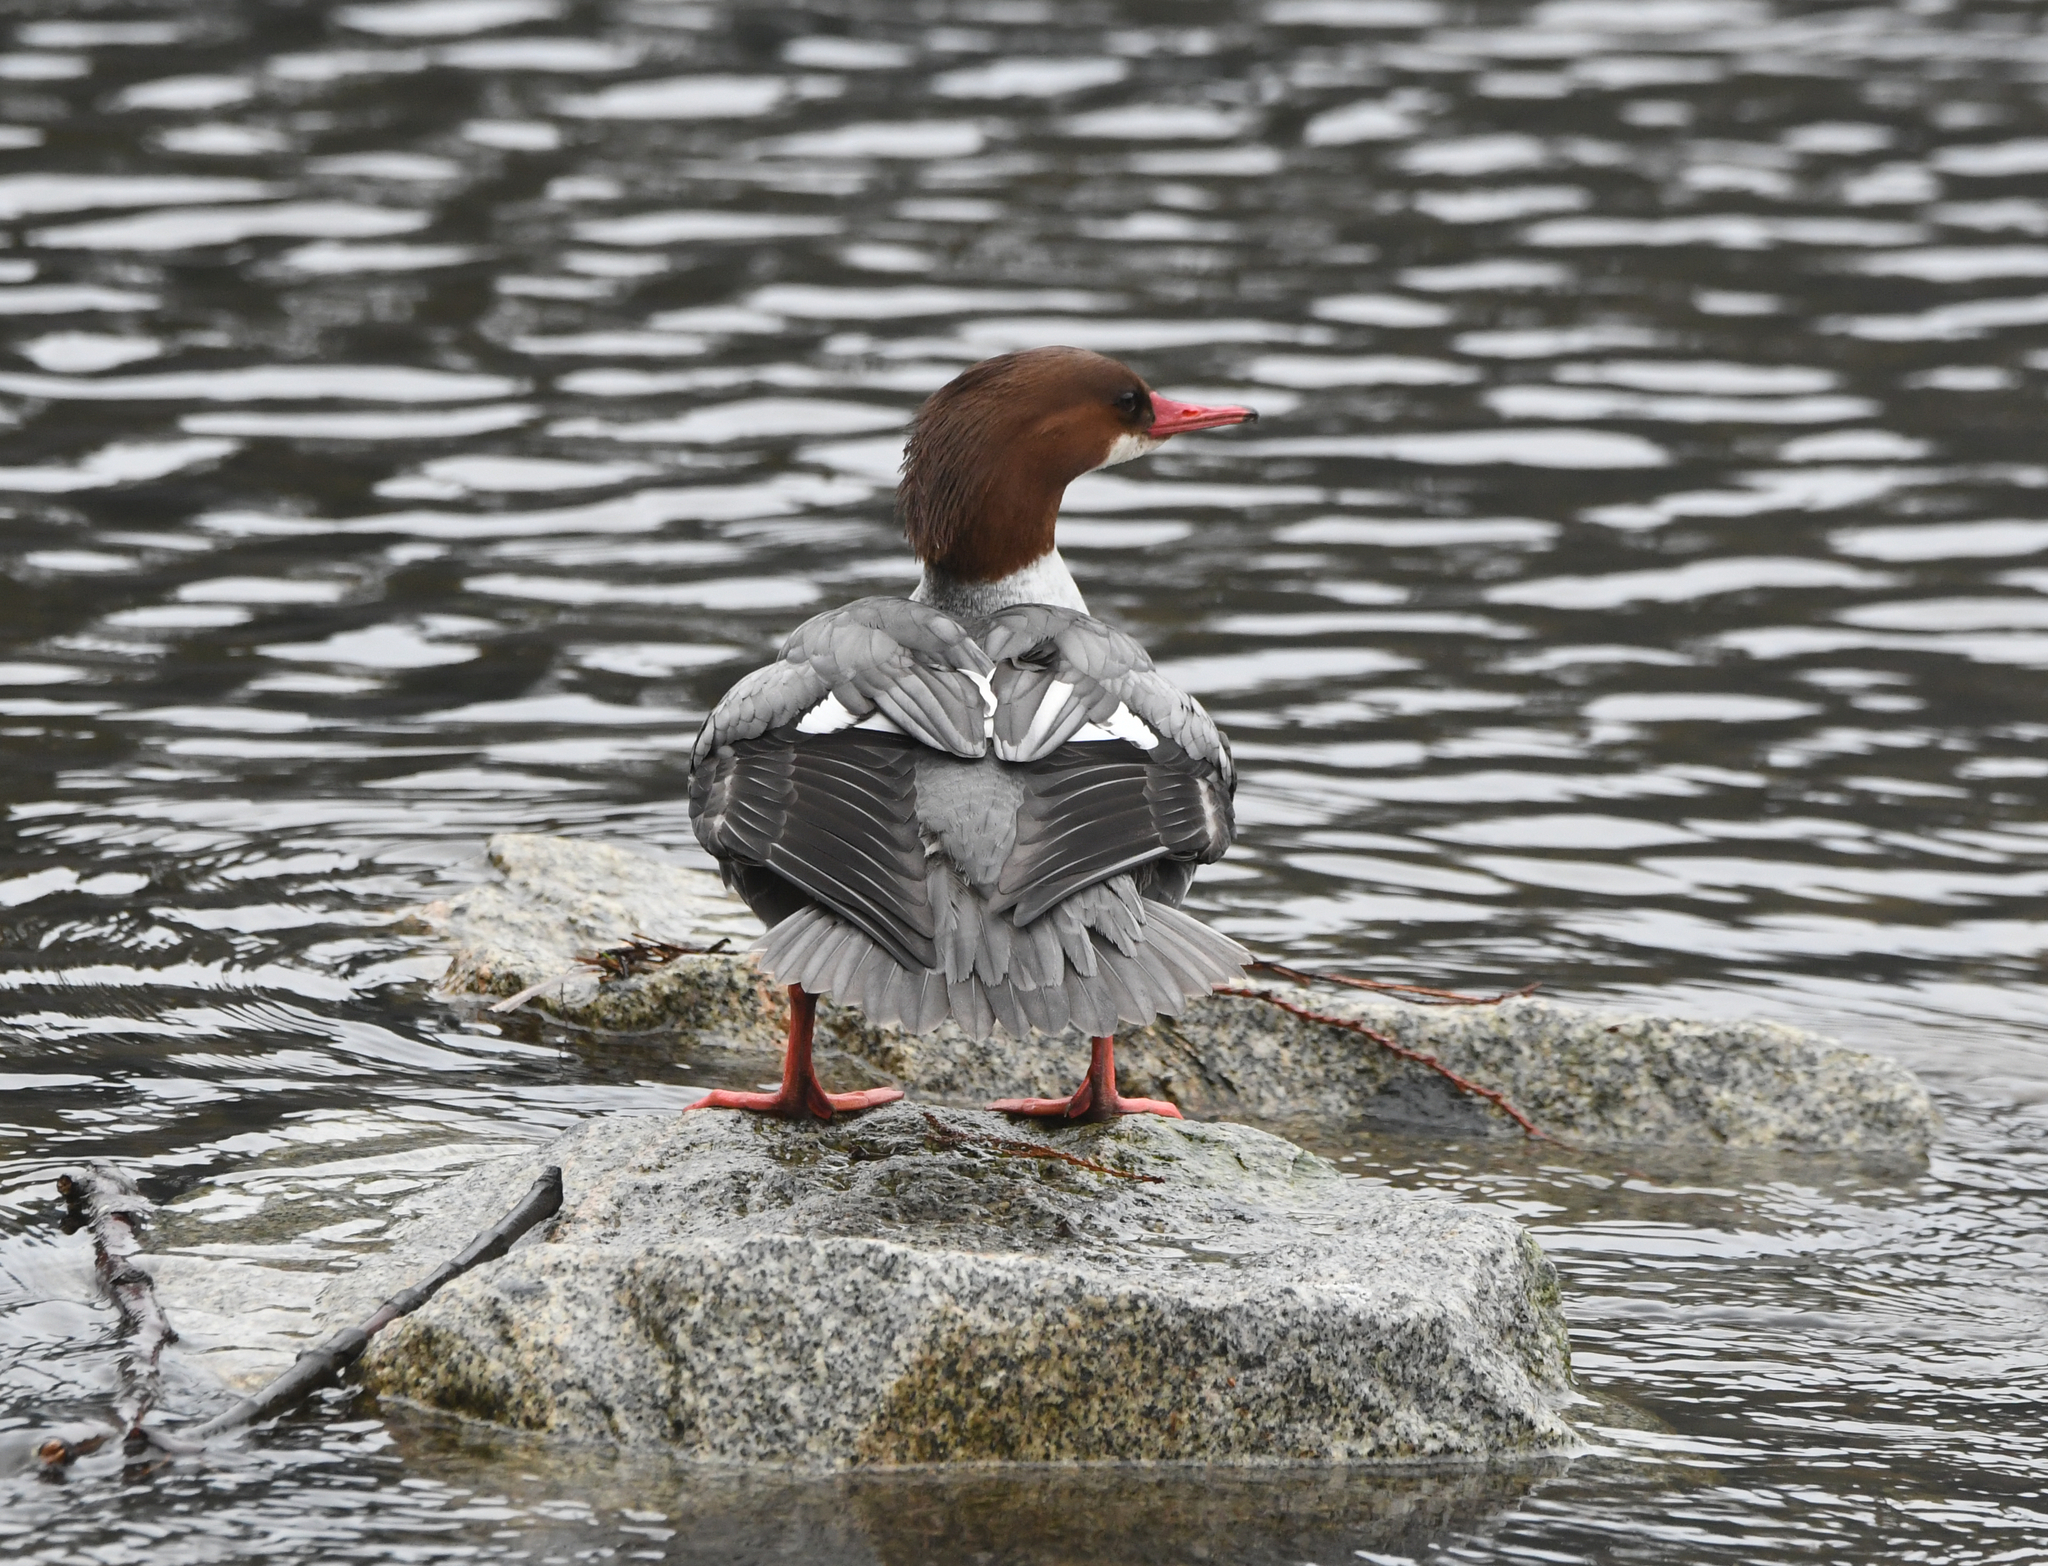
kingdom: Animalia
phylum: Chordata
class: Aves
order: Anseriformes
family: Anatidae
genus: Mergus
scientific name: Mergus merganser
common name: Common merganser
